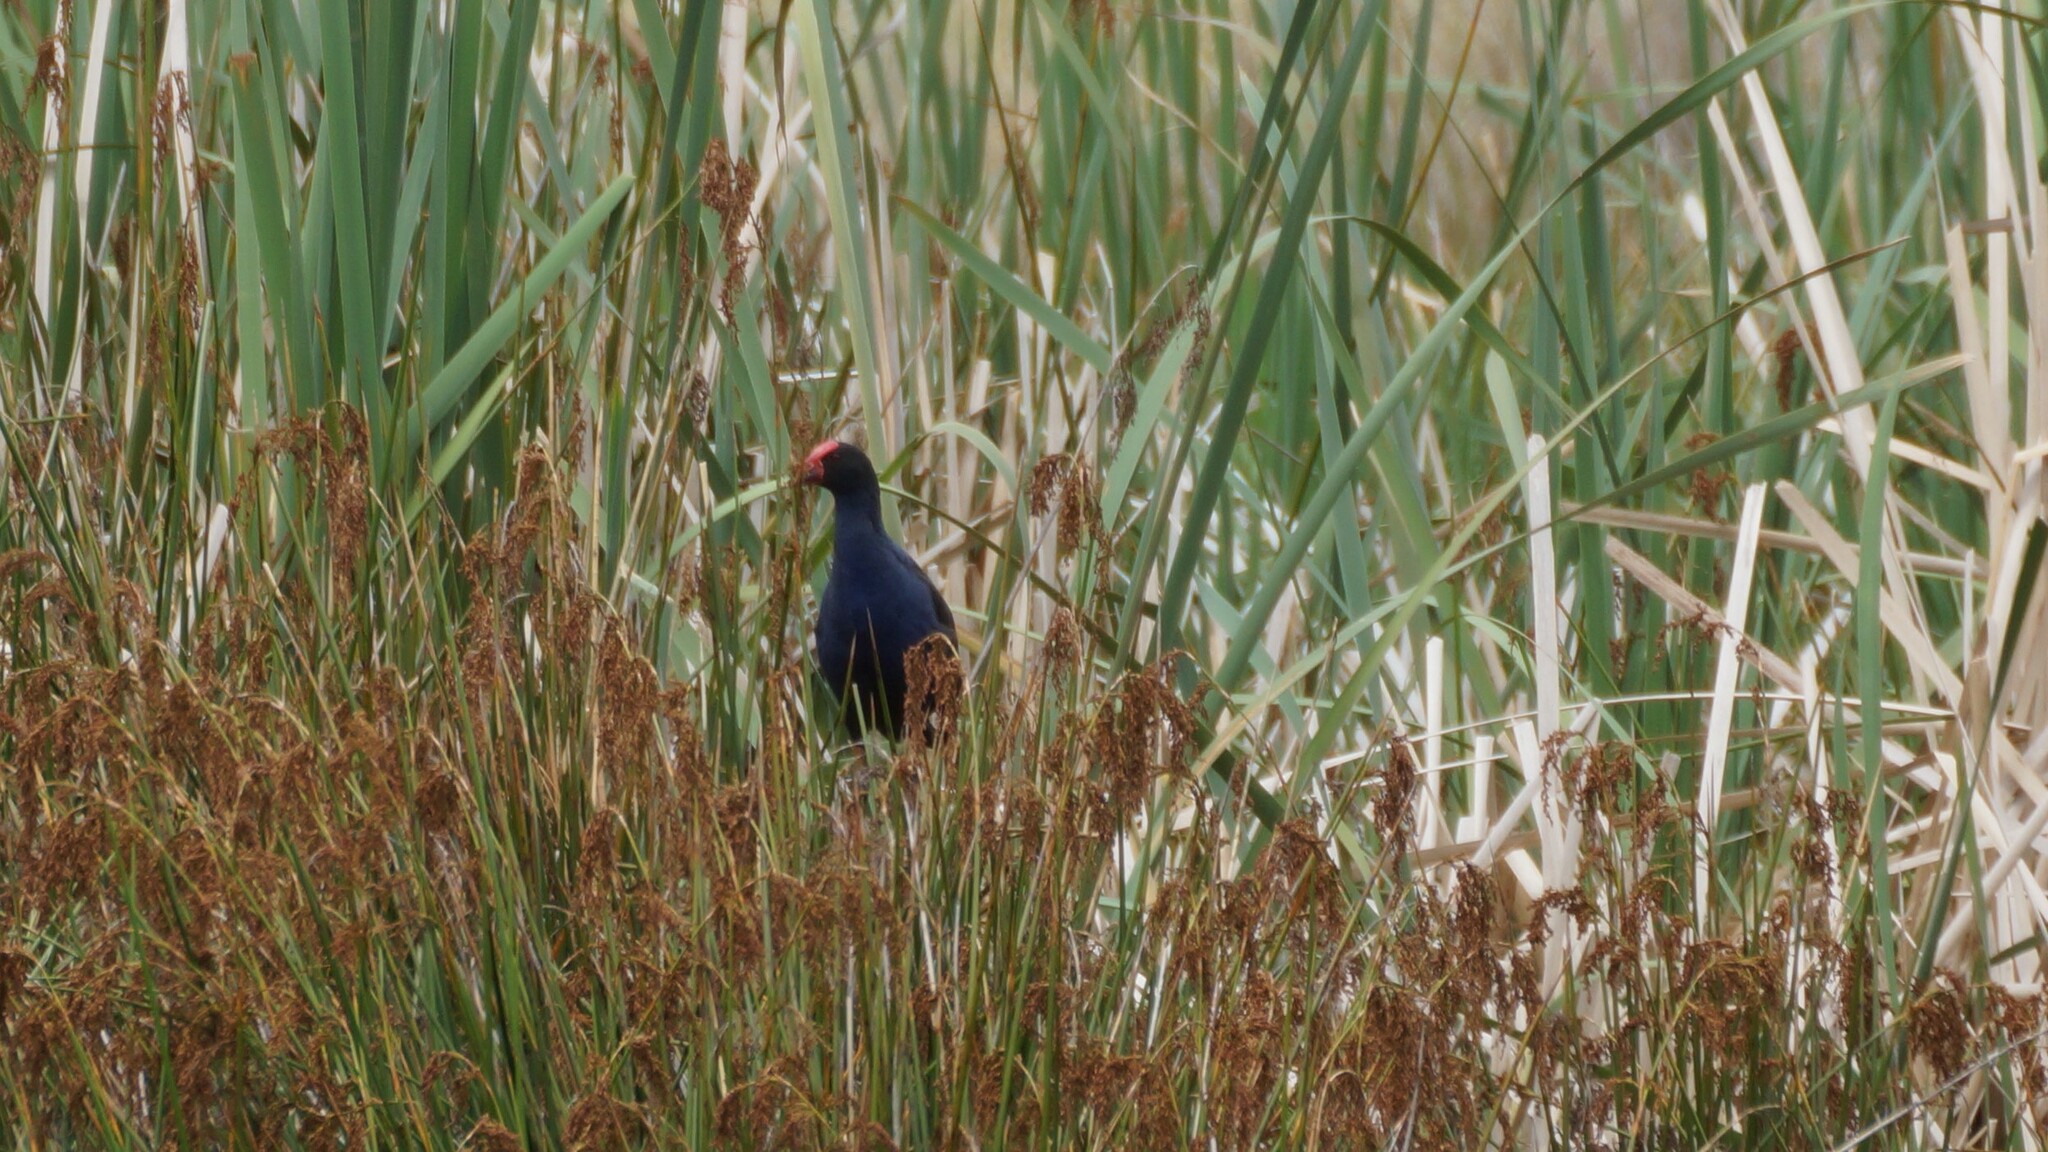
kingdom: Animalia
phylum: Chordata
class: Aves
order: Gruiformes
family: Rallidae
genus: Porphyrio
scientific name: Porphyrio melanotus
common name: Australasian swamphen
